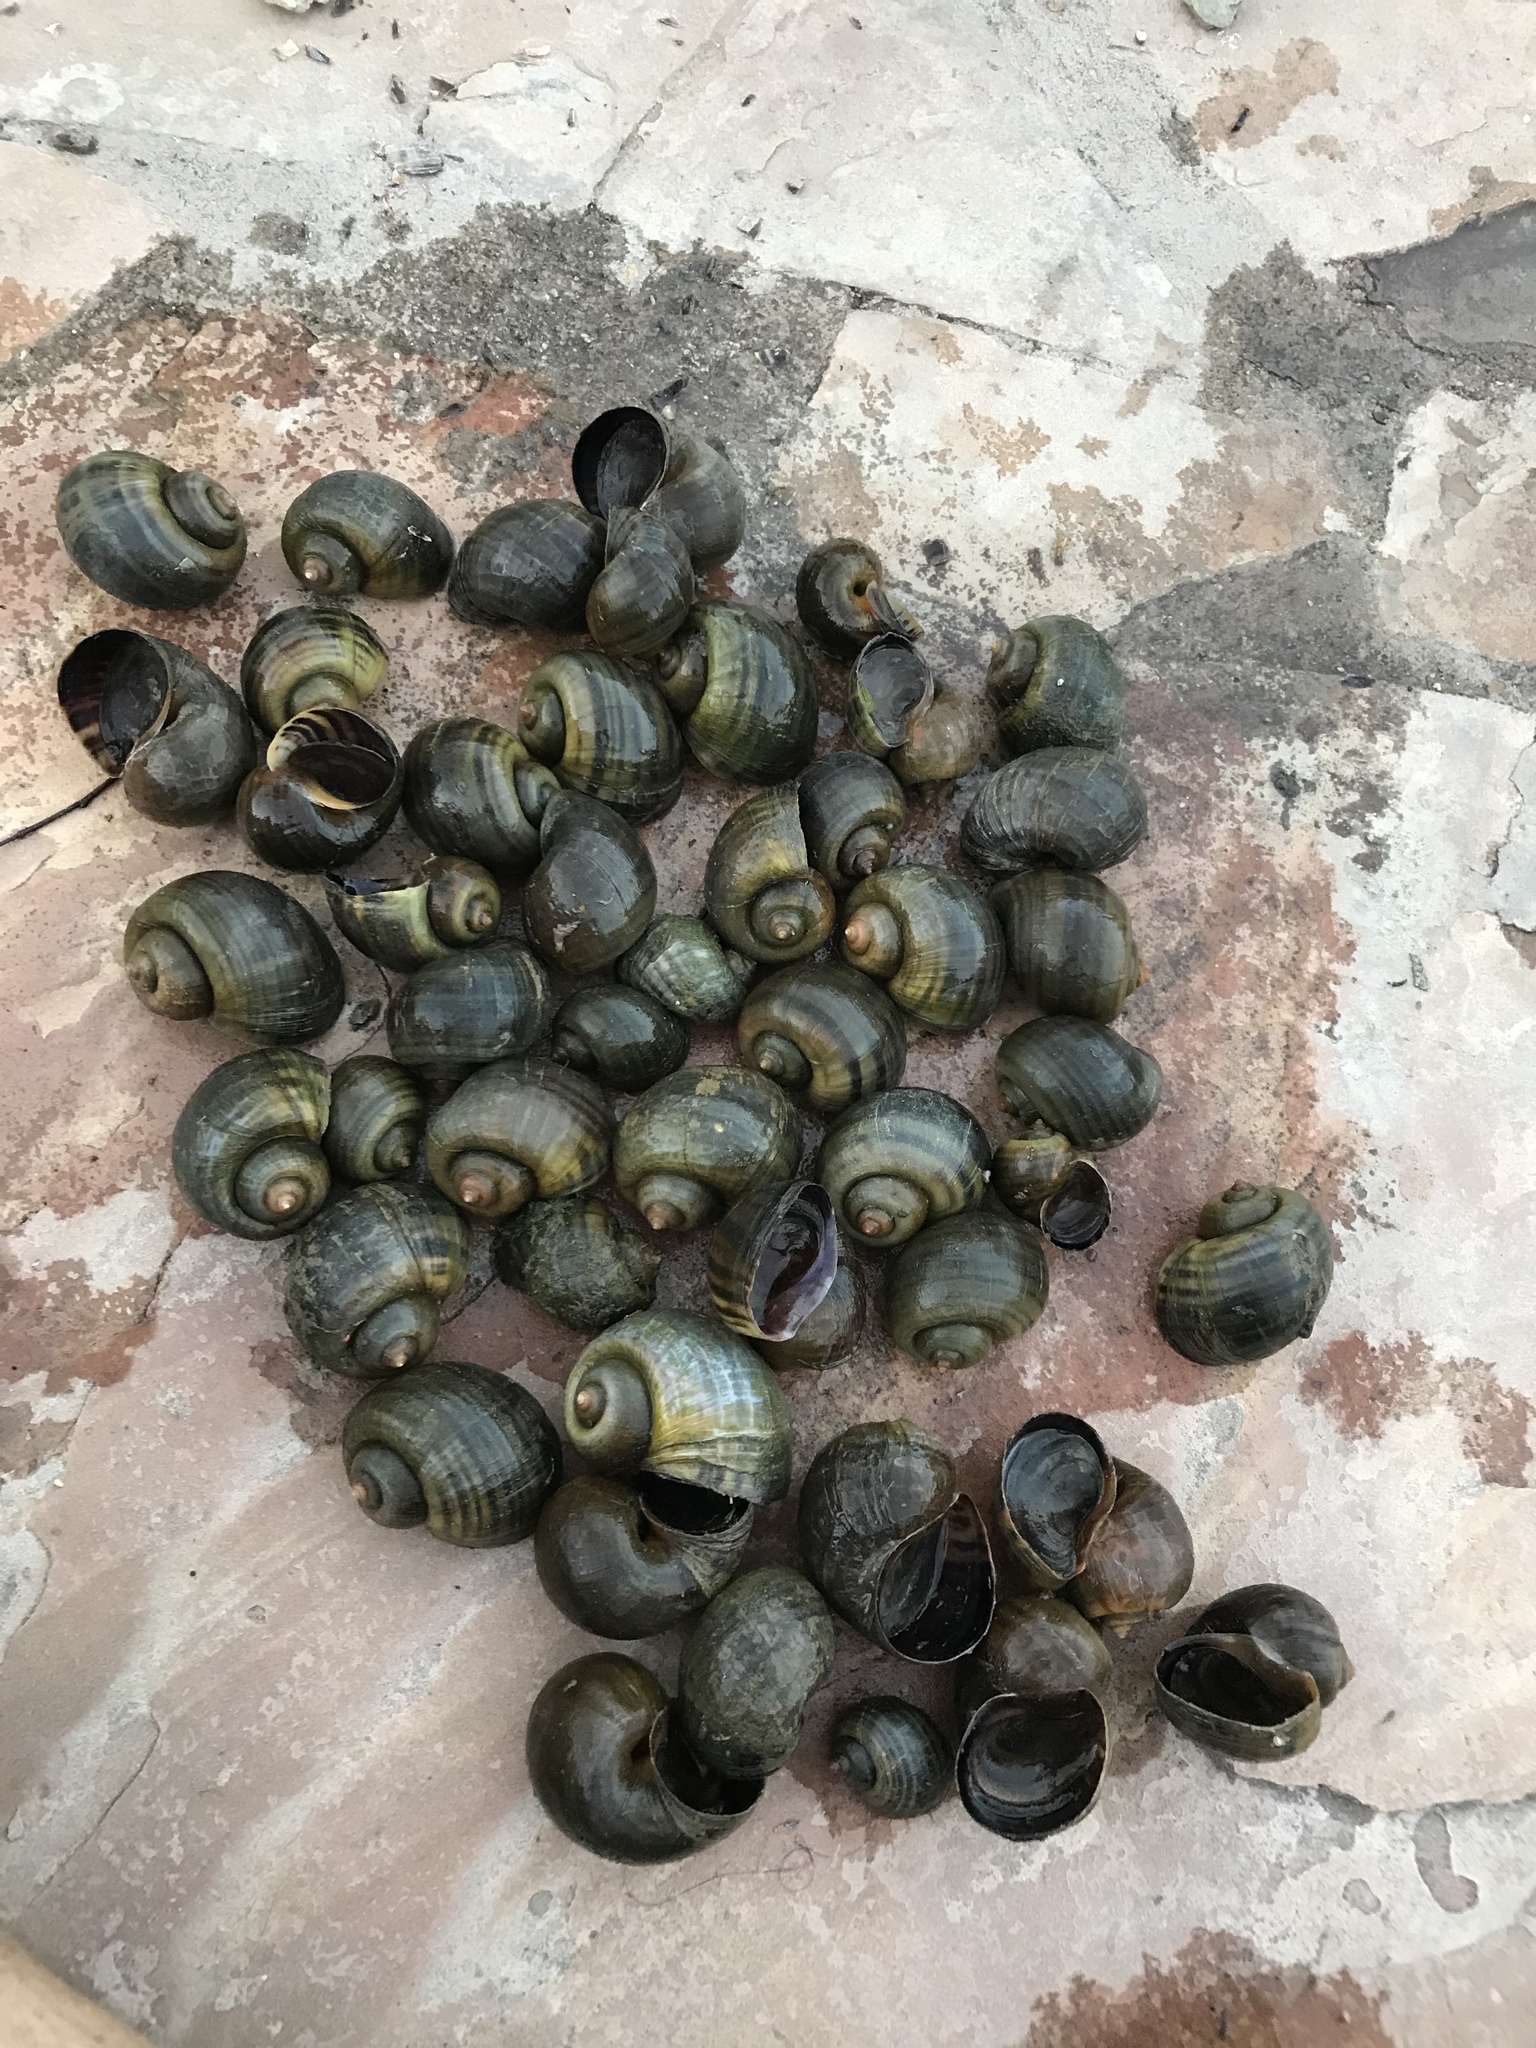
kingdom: Animalia
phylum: Mollusca
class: Gastropoda
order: Architaenioglossa
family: Ampullariidae
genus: Pomacea
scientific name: Pomacea canaliculata
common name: Channeled applesnail
